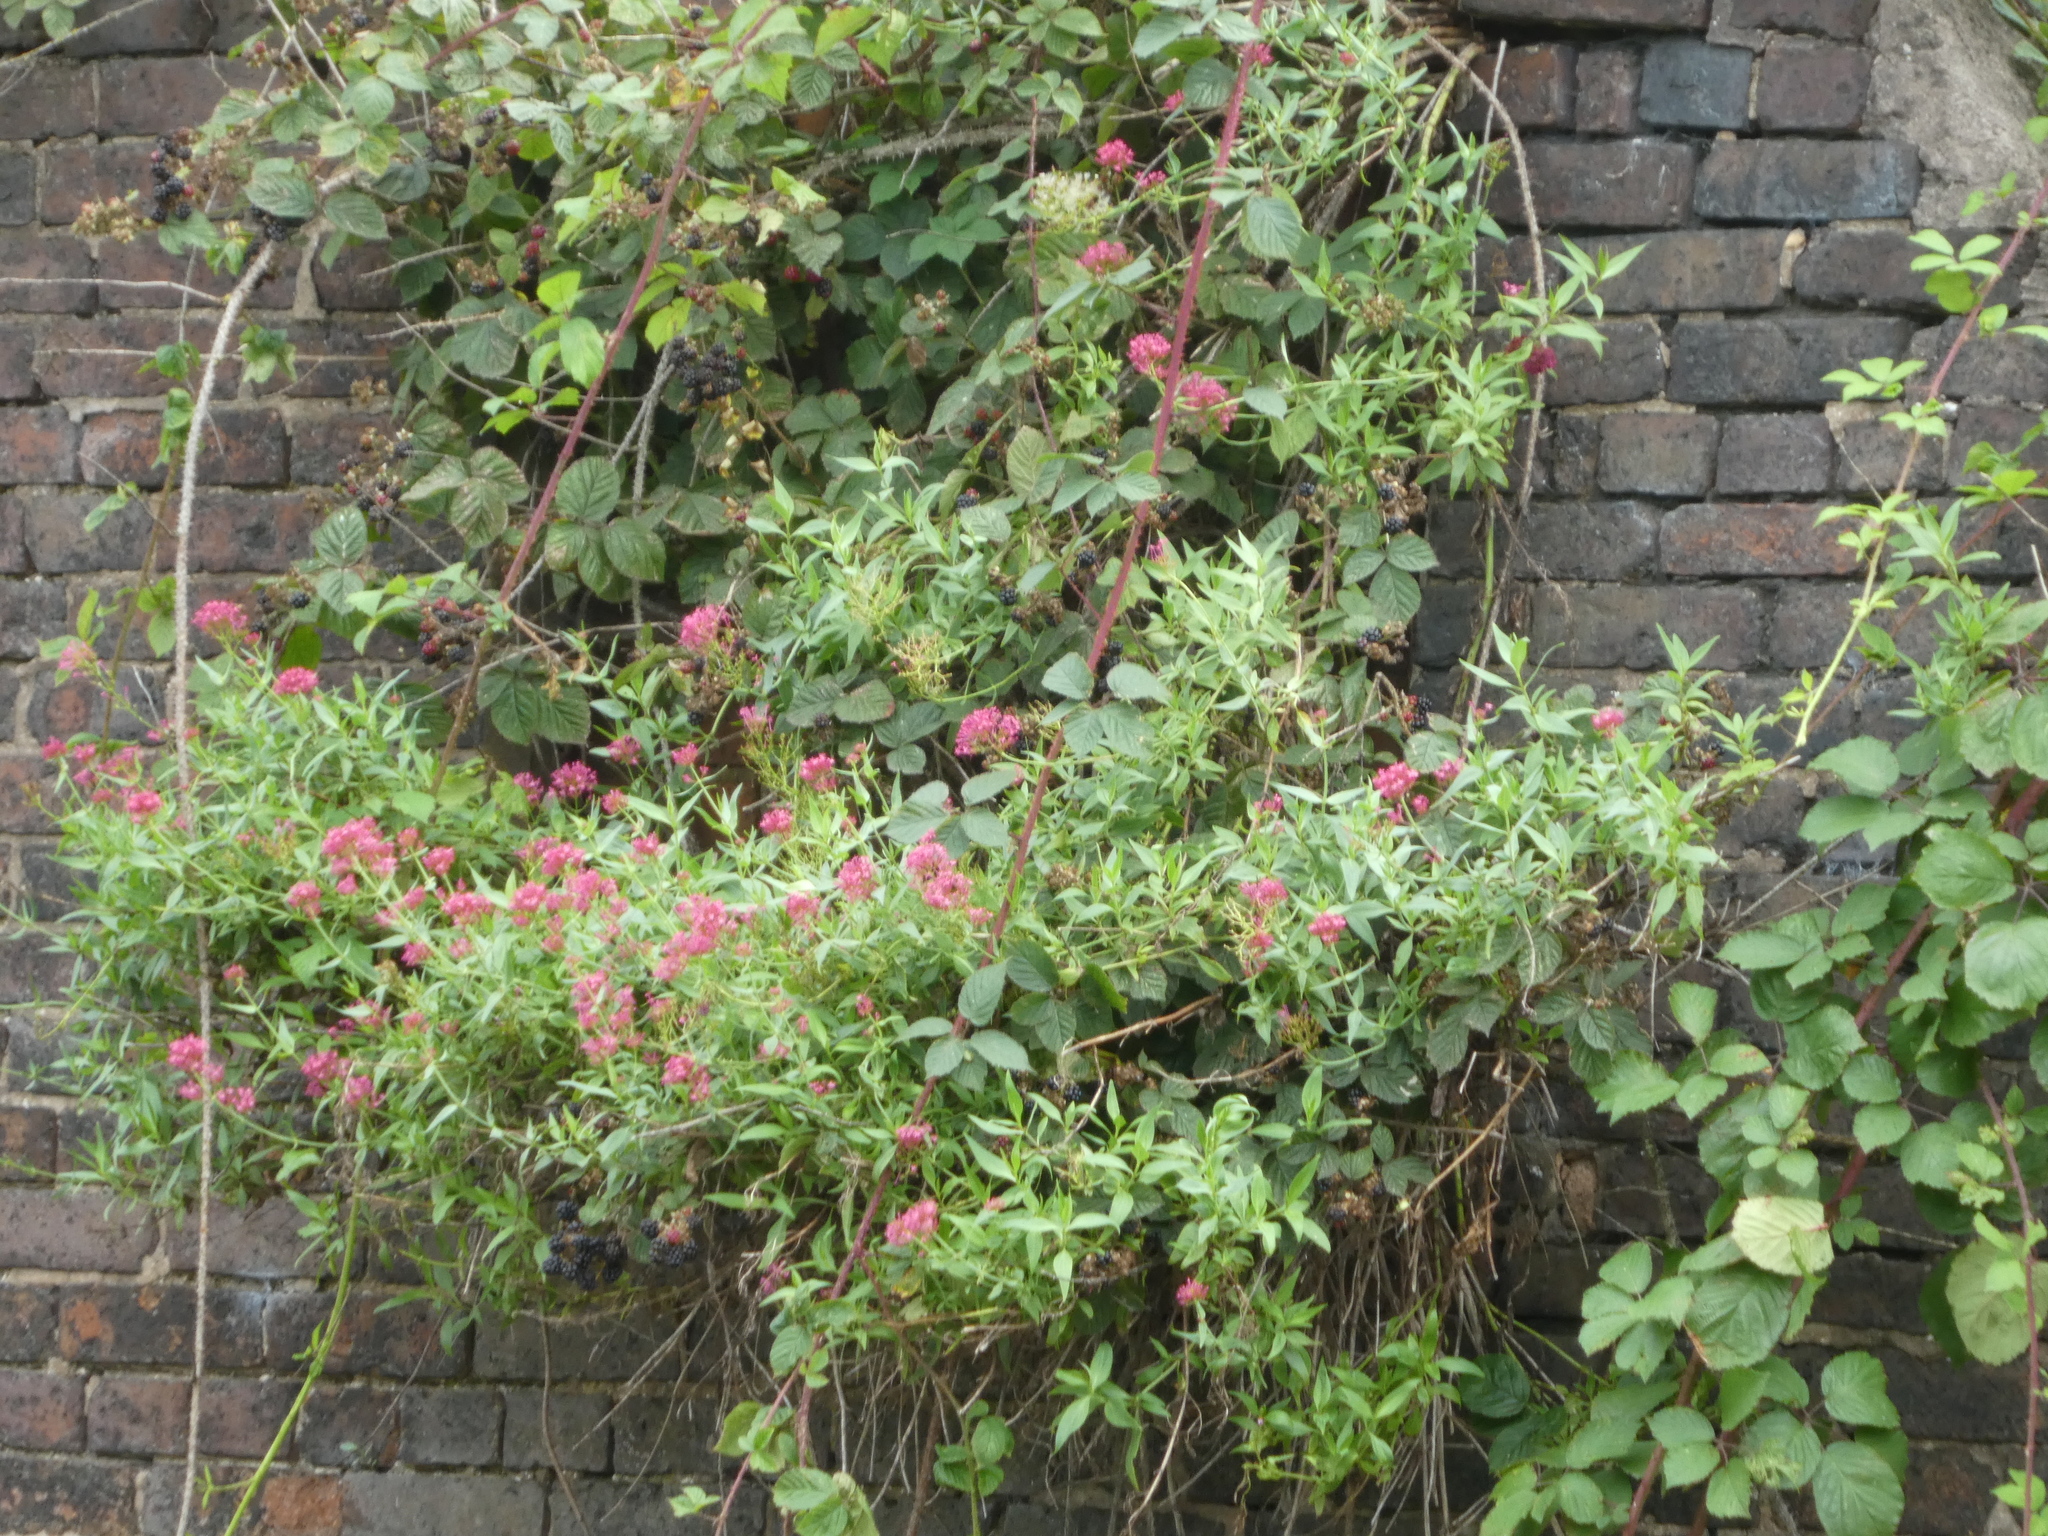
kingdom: Plantae
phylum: Tracheophyta
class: Magnoliopsida
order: Dipsacales
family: Caprifoliaceae
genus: Centranthus
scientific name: Centranthus ruber
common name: Red valerian
